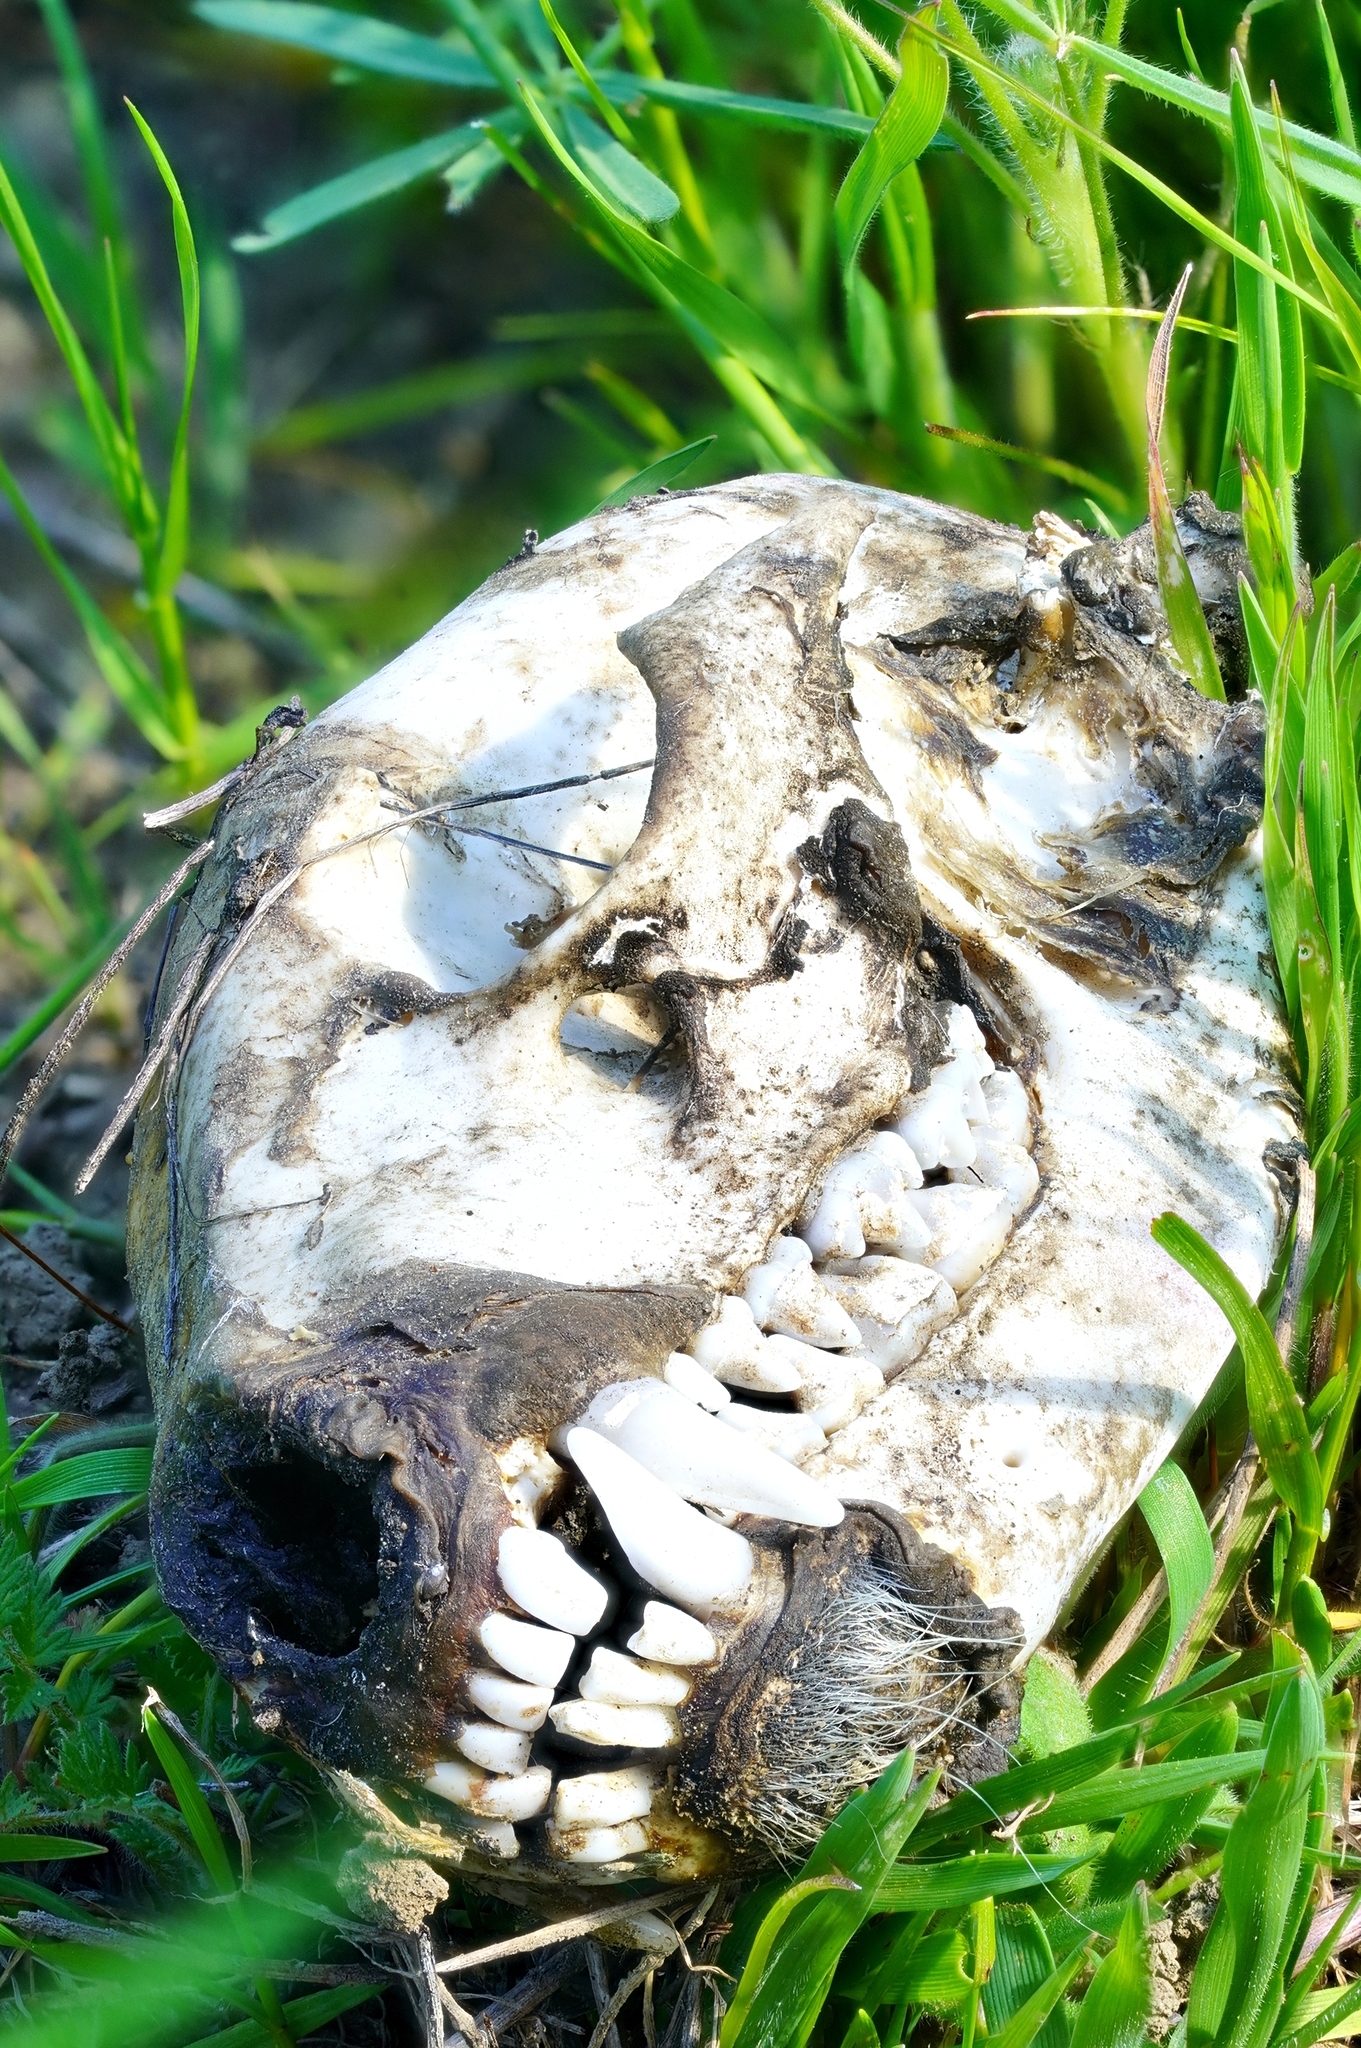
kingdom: Animalia
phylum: Chordata
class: Mammalia
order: Carnivora
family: Procyonidae
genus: Procyon
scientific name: Procyon lotor
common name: Raccoon
